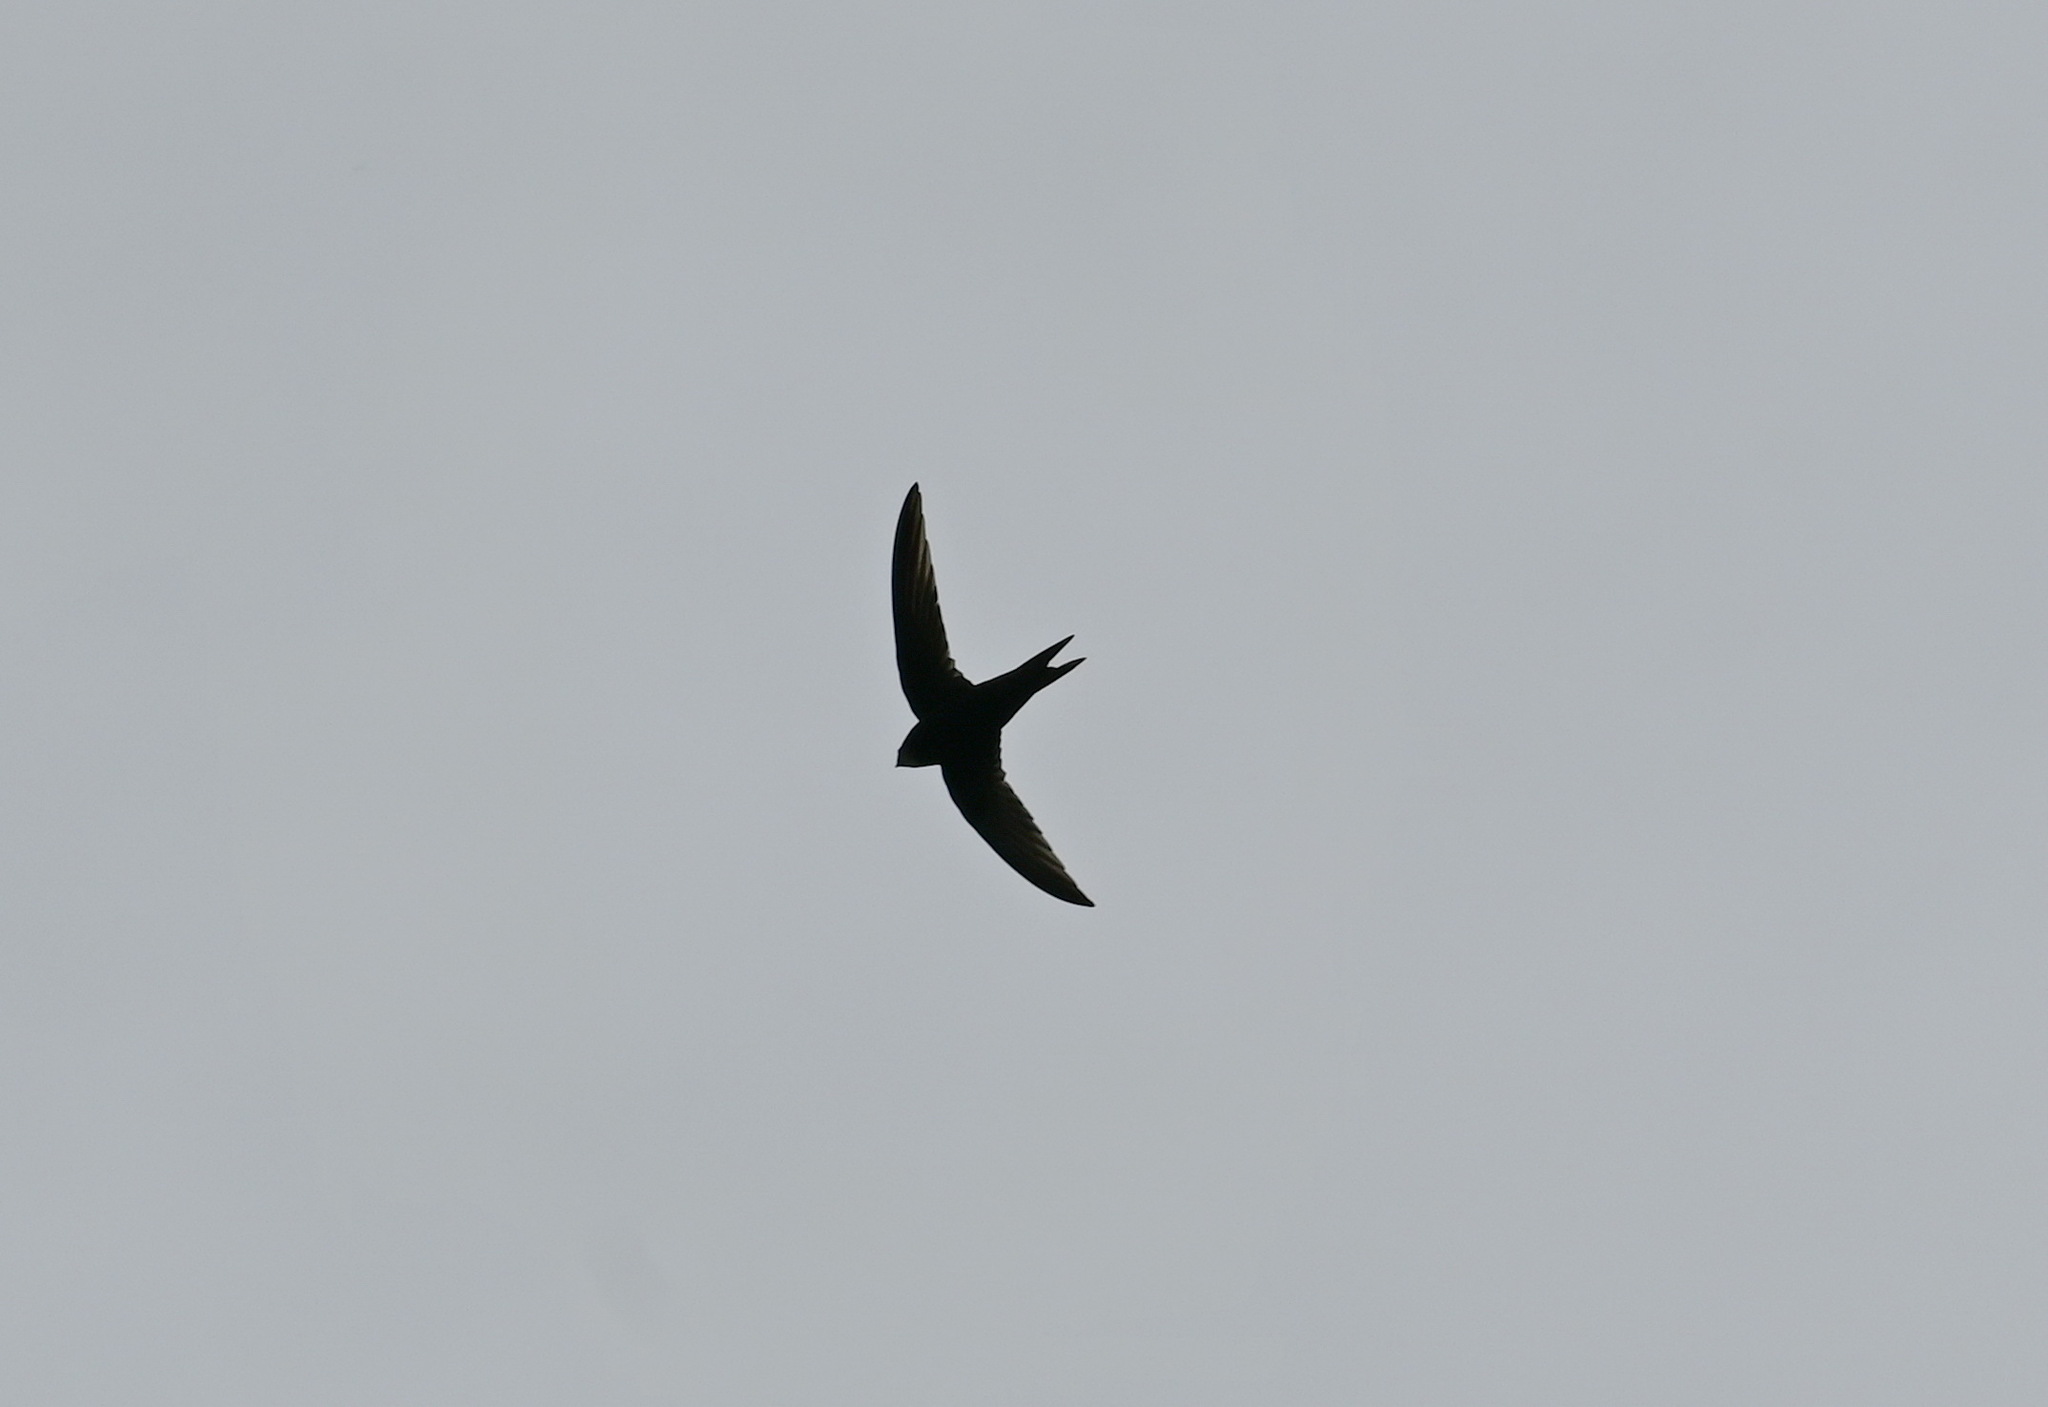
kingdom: Animalia
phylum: Chordata
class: Aves
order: Apodiformes
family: Apodidae
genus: Apus
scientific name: Apus apus
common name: Common swift
